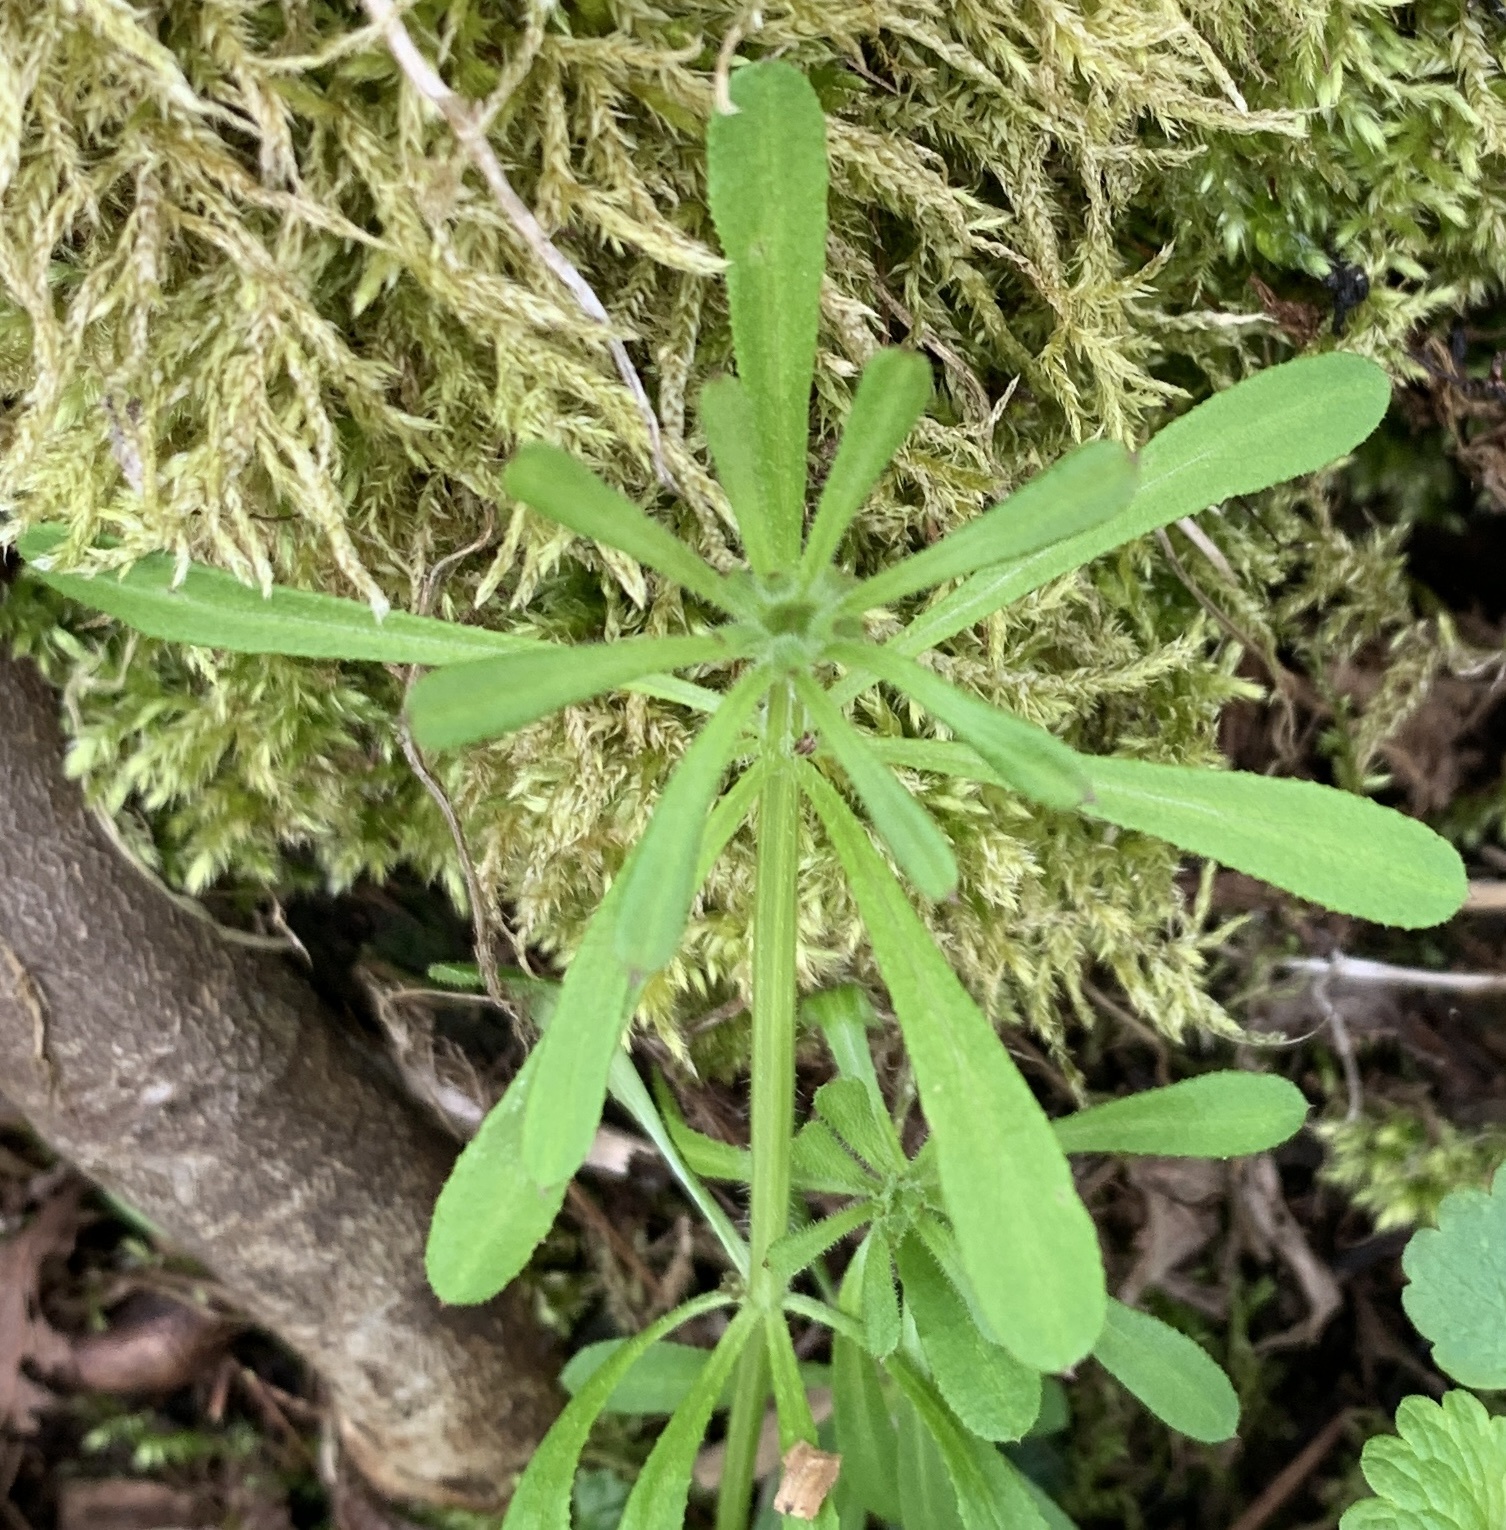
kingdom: Plantae
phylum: Tracheophyta
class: Magnoliopsida
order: Gentianales
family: Rubiaceae
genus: Galium
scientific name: Galium aparine
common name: Cleavers
